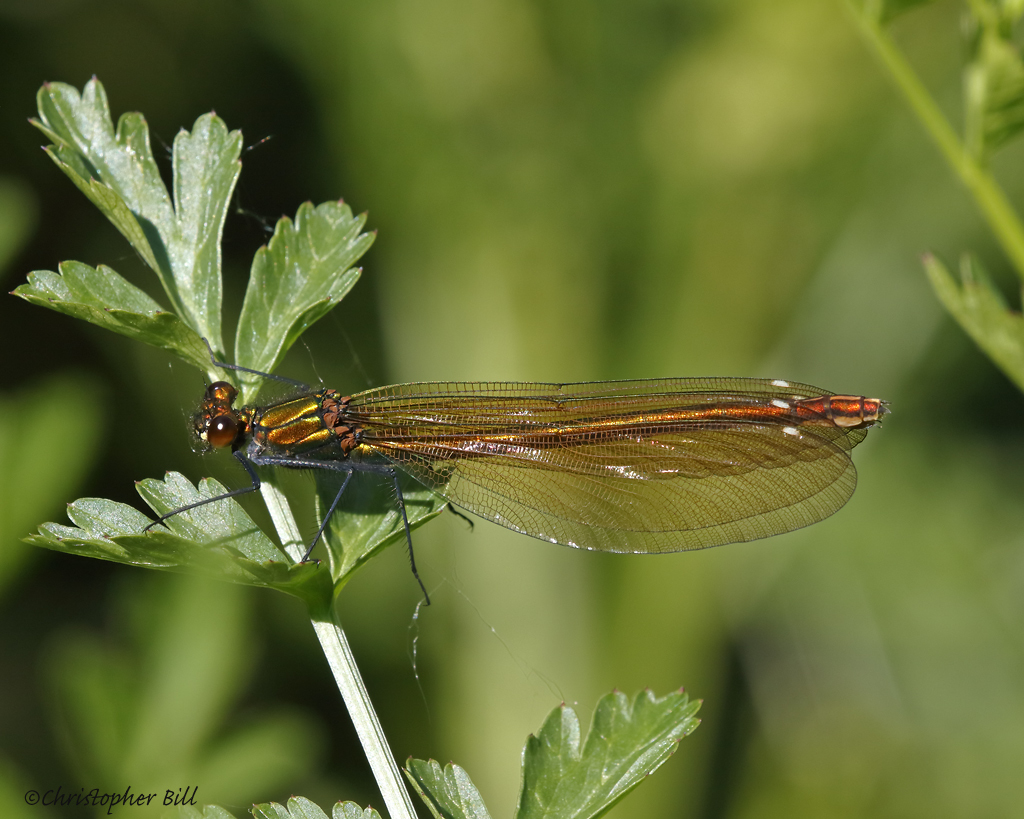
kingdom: Animalia
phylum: Arthropoda
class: Insecta
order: Odonata
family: Calopterygidae
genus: Calopteryx
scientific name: Calopteryx virgo
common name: Beautiful demoiselle
